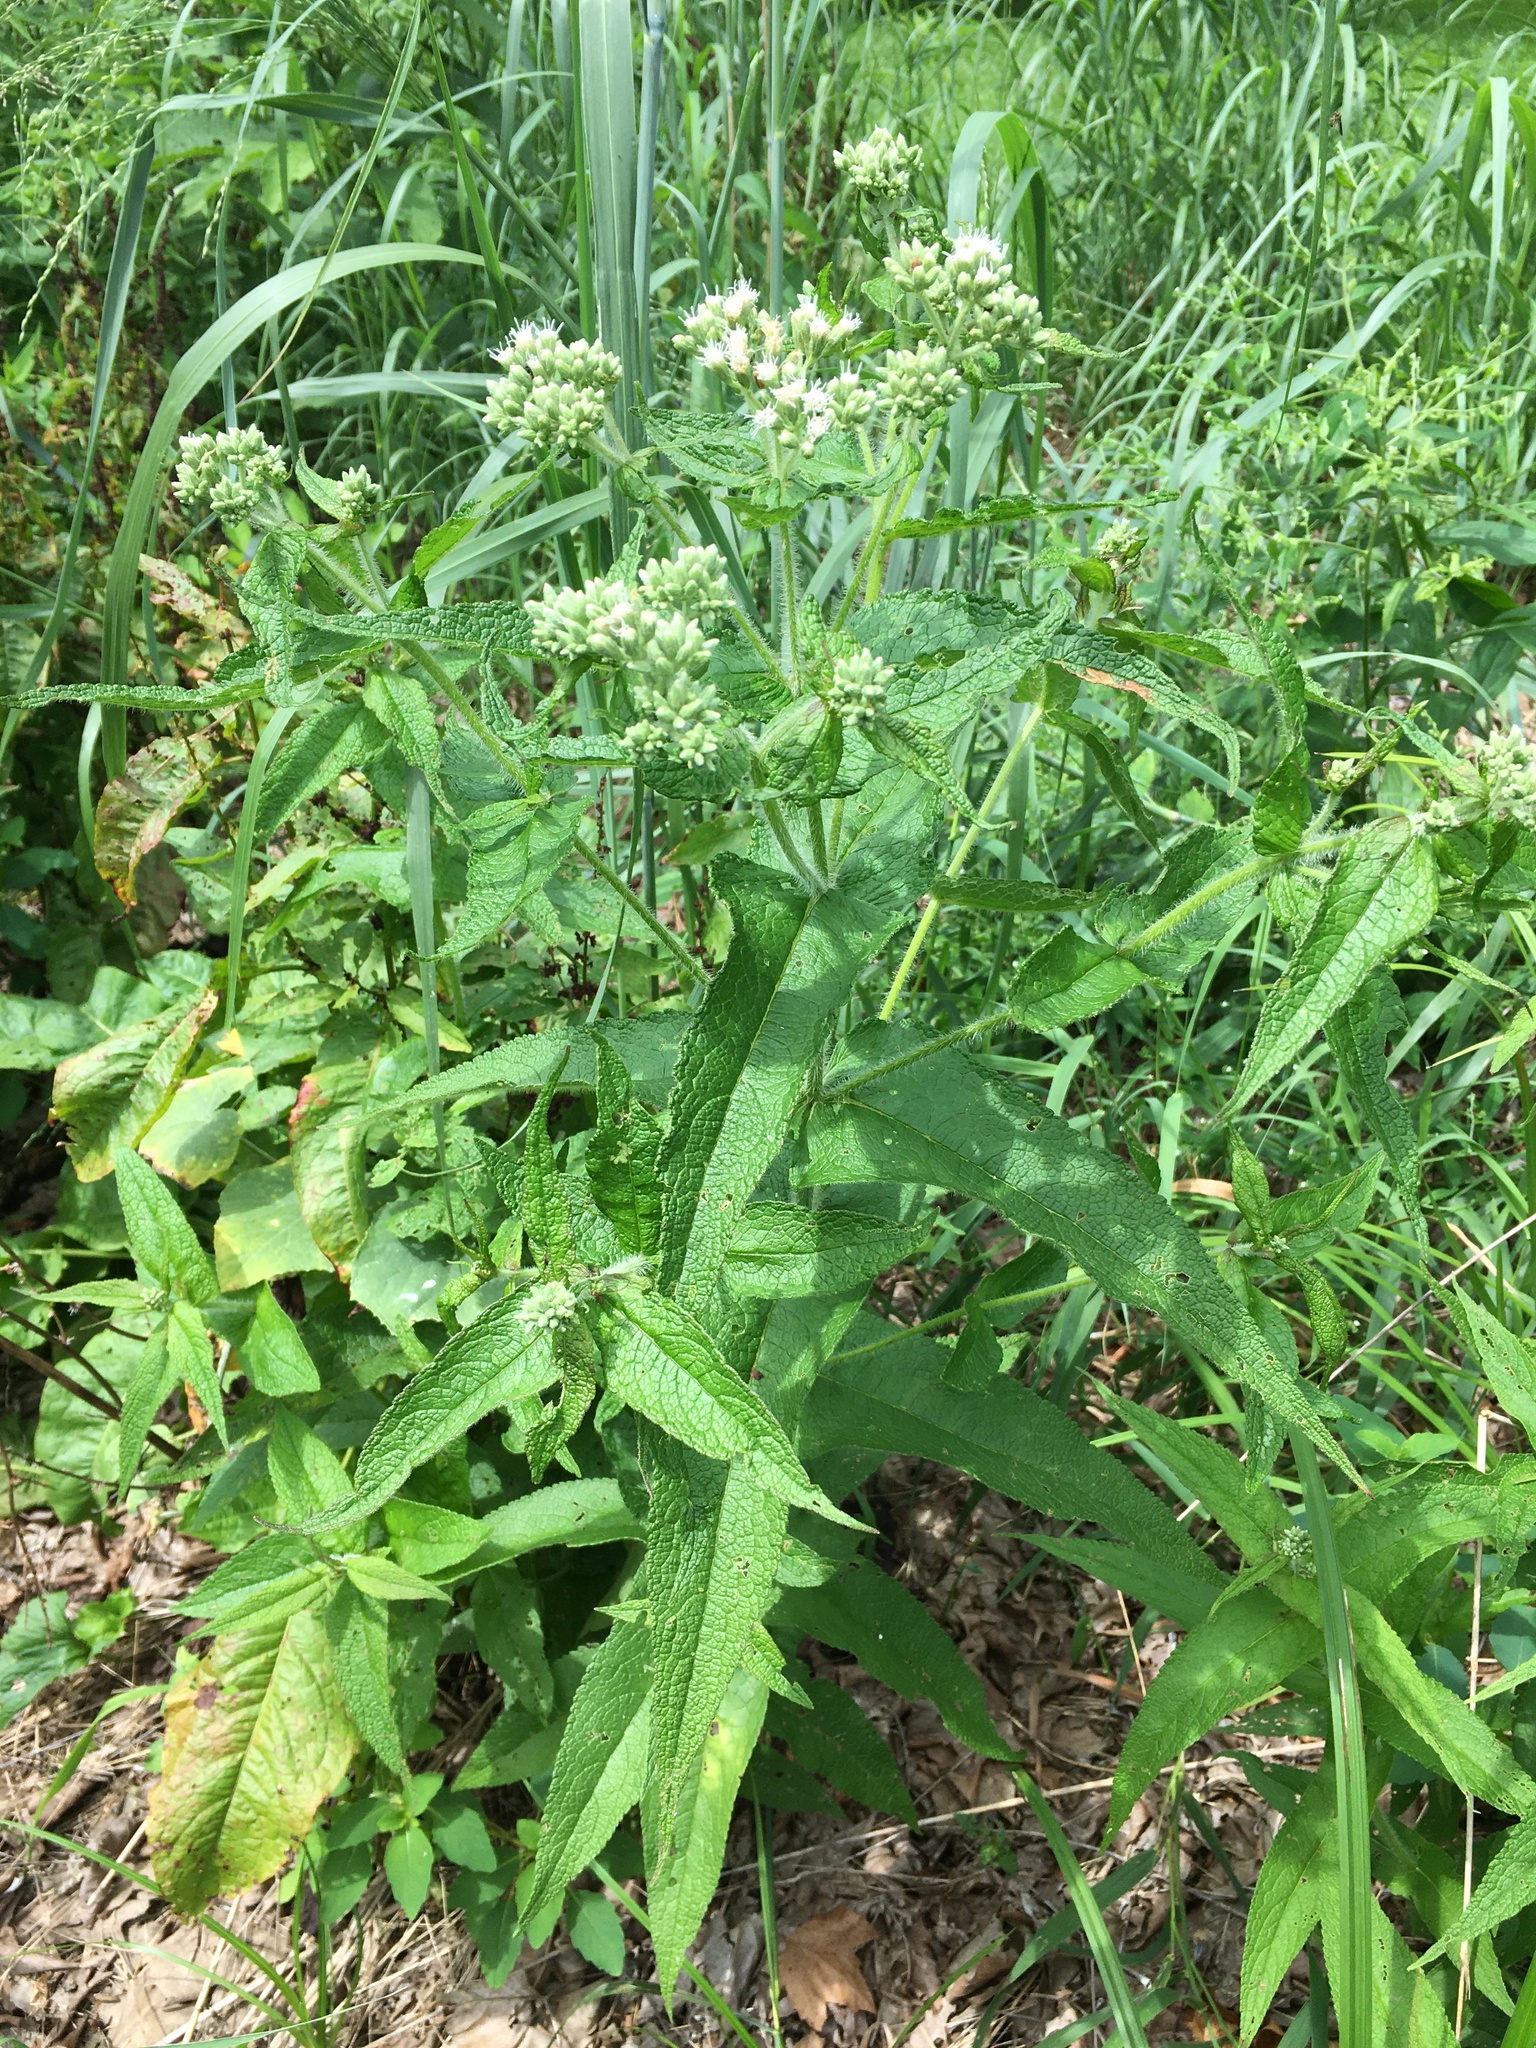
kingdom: Plantae
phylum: Tracheophyta
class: Magnoliopsida
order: Asterales
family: Asteraceae
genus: Eupatorium
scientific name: Eupatorium perfoliatum
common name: Boneset
